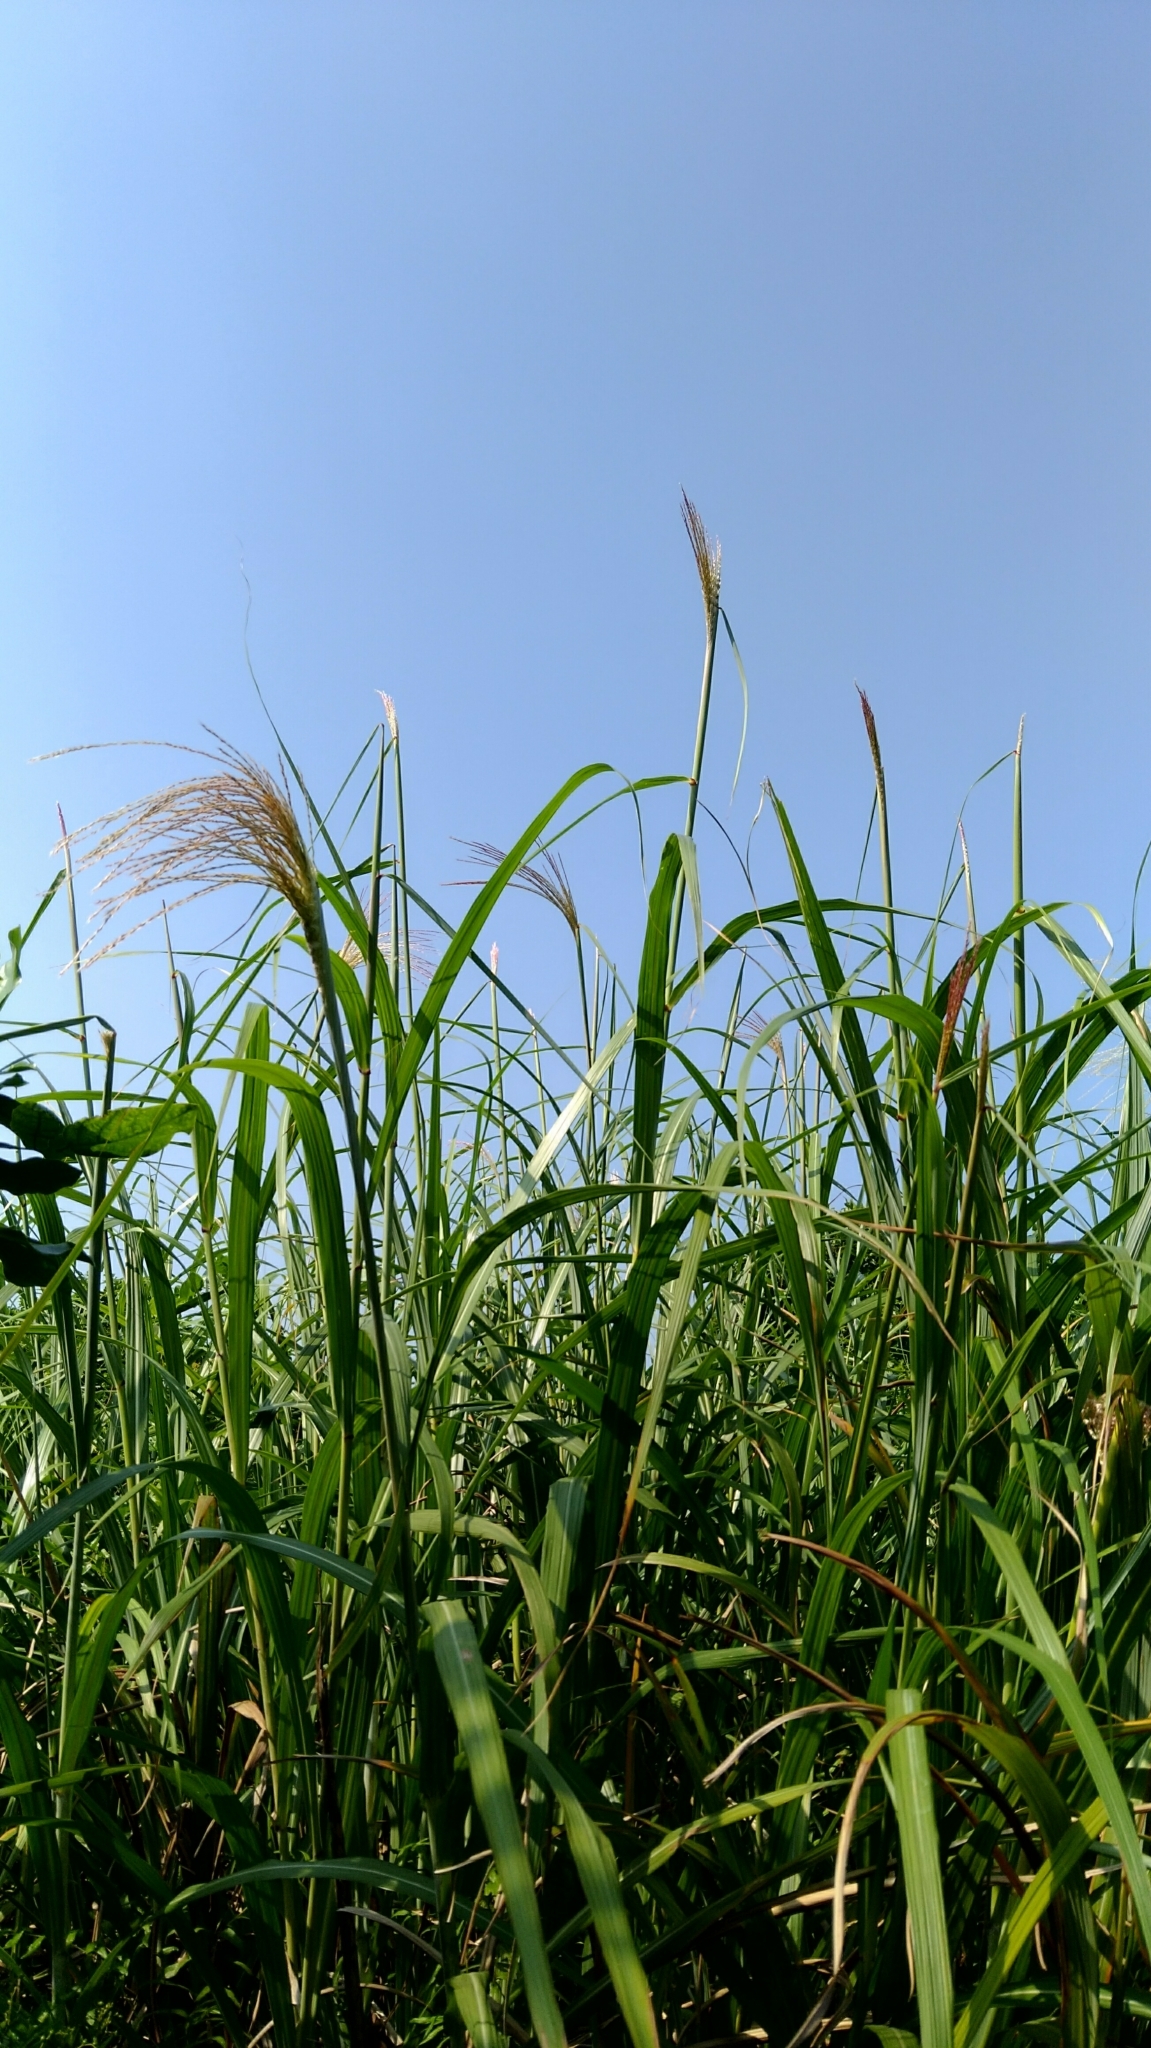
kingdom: Plantae
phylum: Tracheophyta
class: Liliopsida
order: Poales
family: Poaceae
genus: Miscanthus
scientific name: Miscanthus sinensis
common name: Chinese silvergrass
